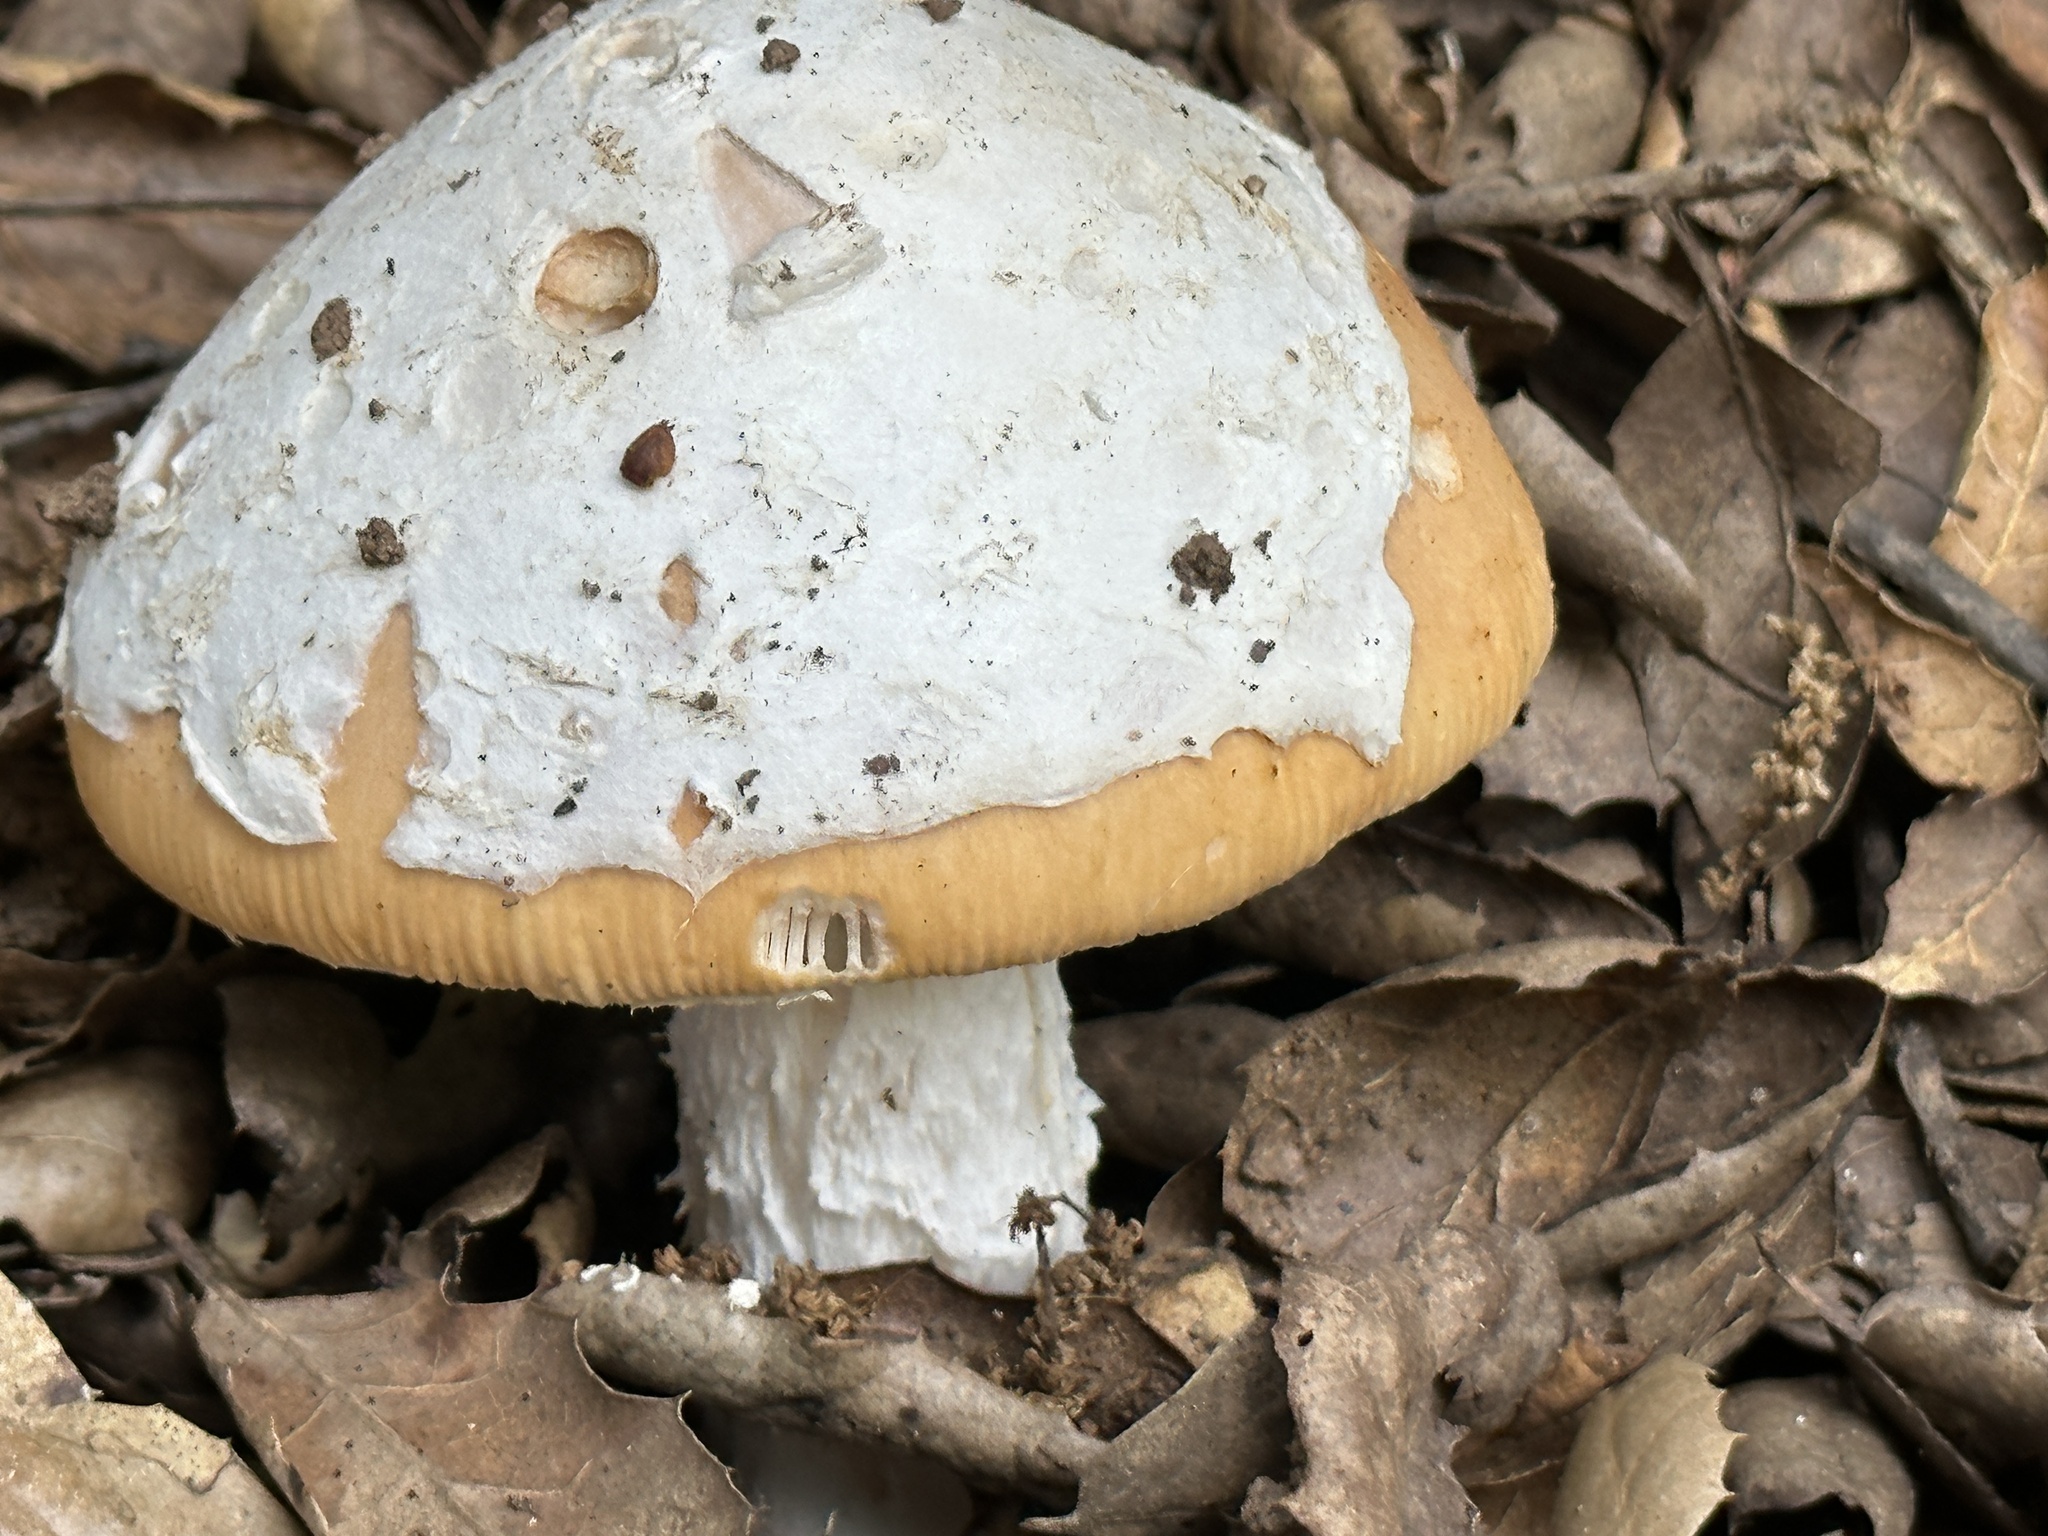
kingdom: Fungi
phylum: Basidiomycota
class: Agaricomycetes
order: Agaricales
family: Amanitaceae
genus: Amanita
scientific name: Amanita velosa
